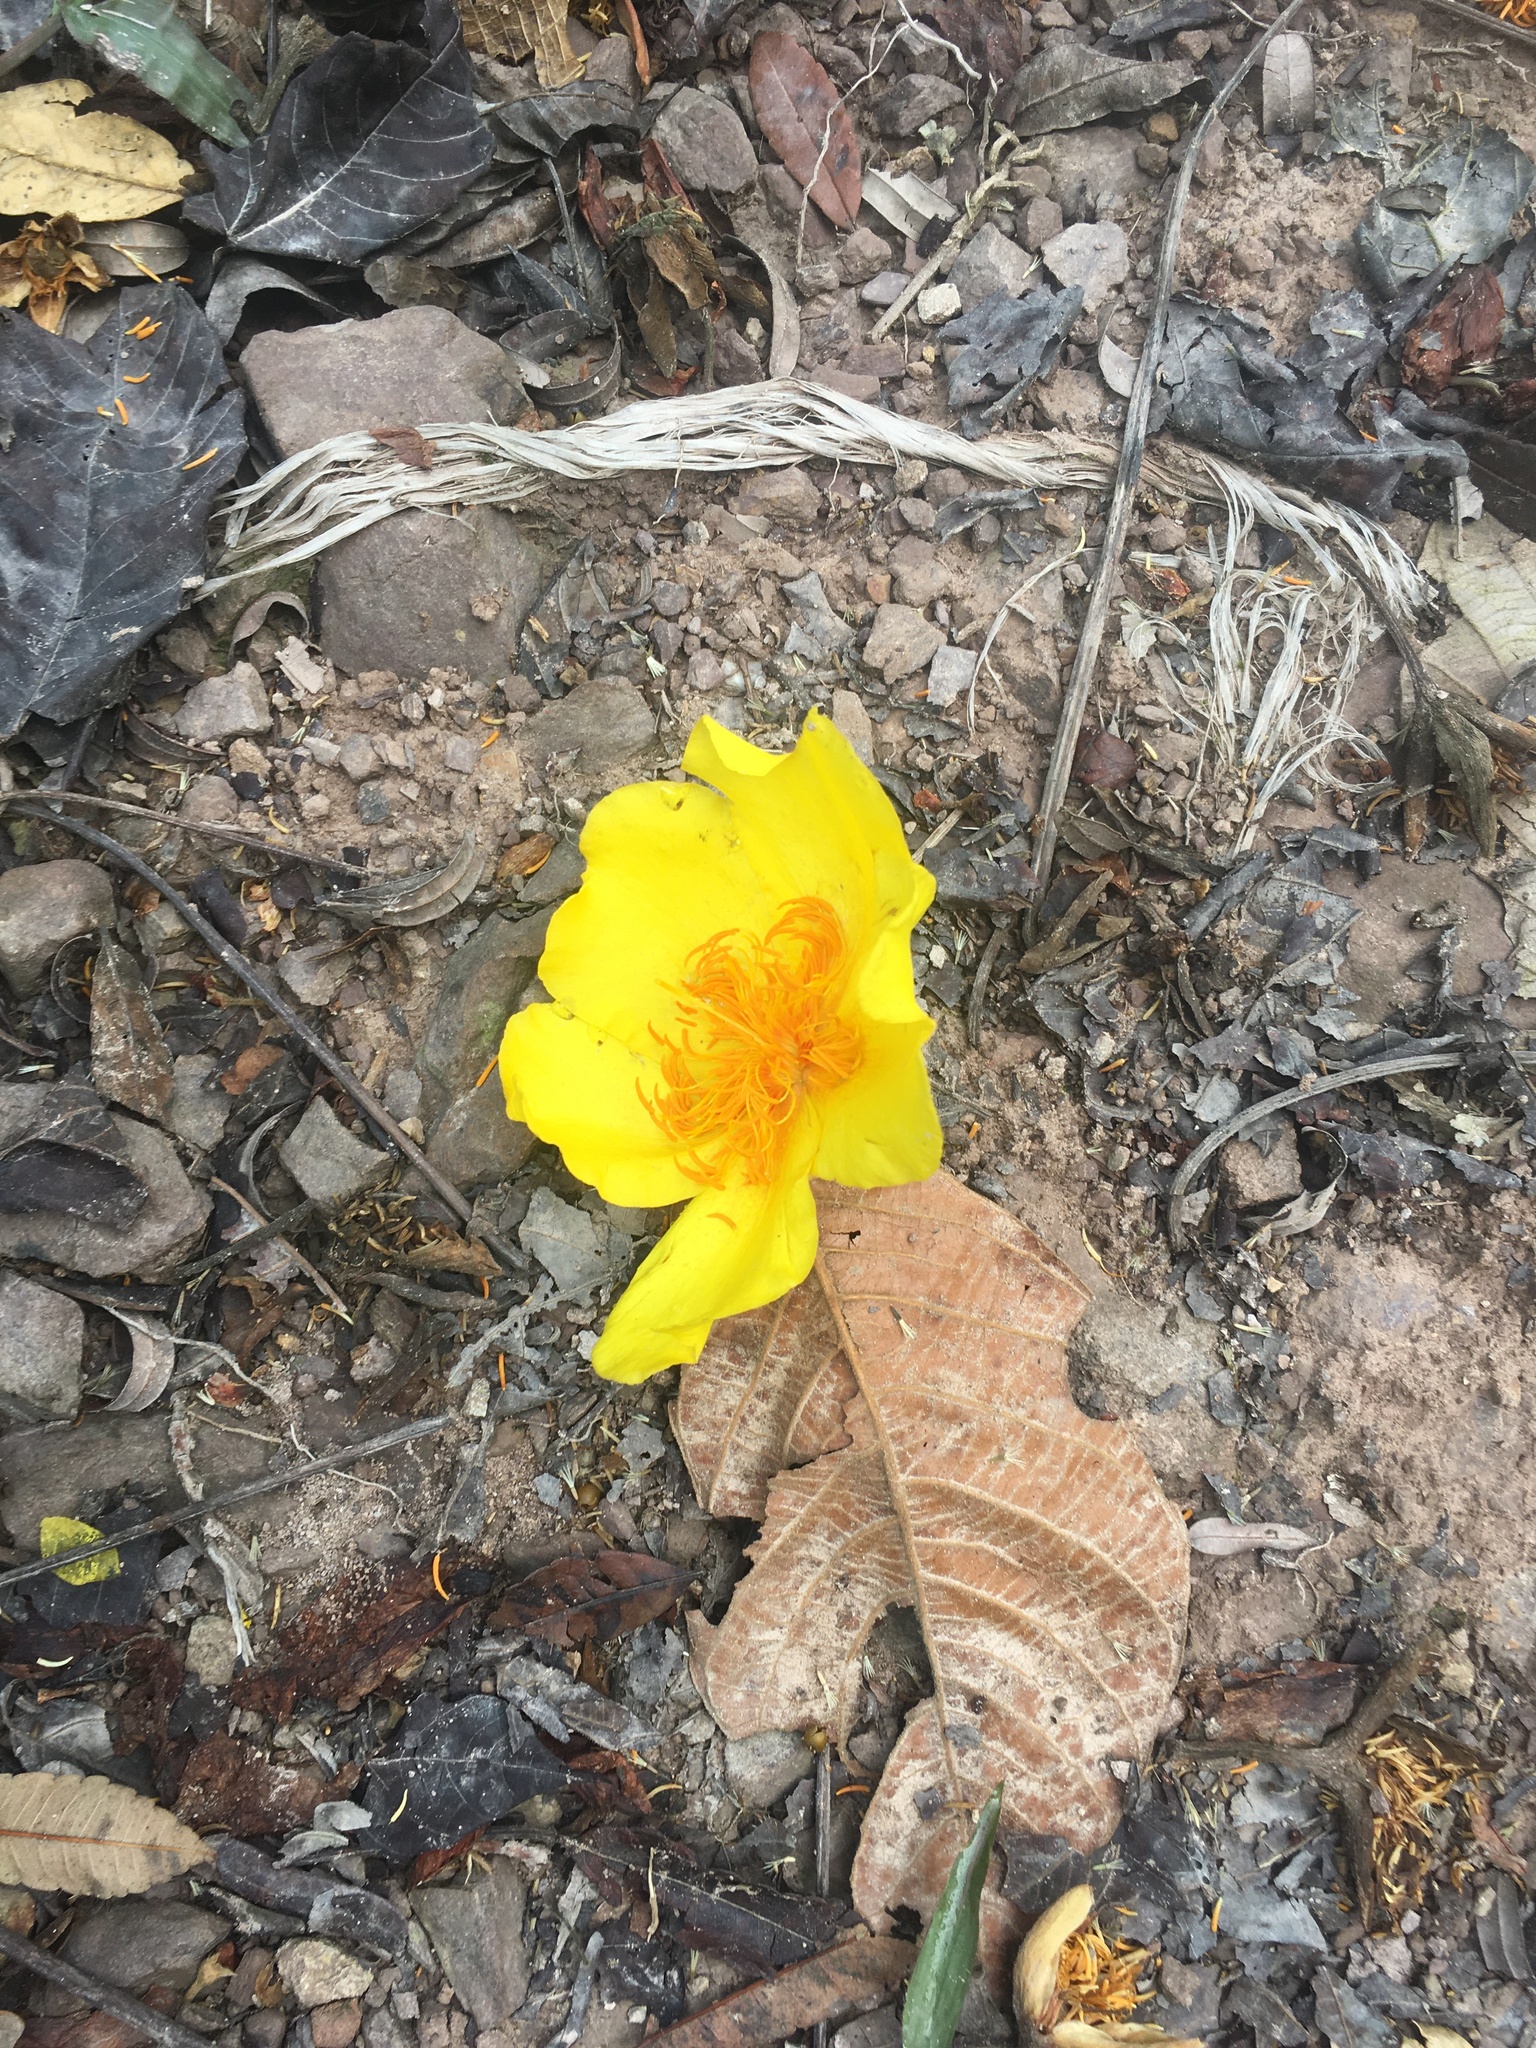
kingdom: Plantae
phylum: Tracheophyta
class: Magnoliopsida
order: Malvales
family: Cochlospermaceae
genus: Cochlospermum
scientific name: Cochlospermum vitifolium
